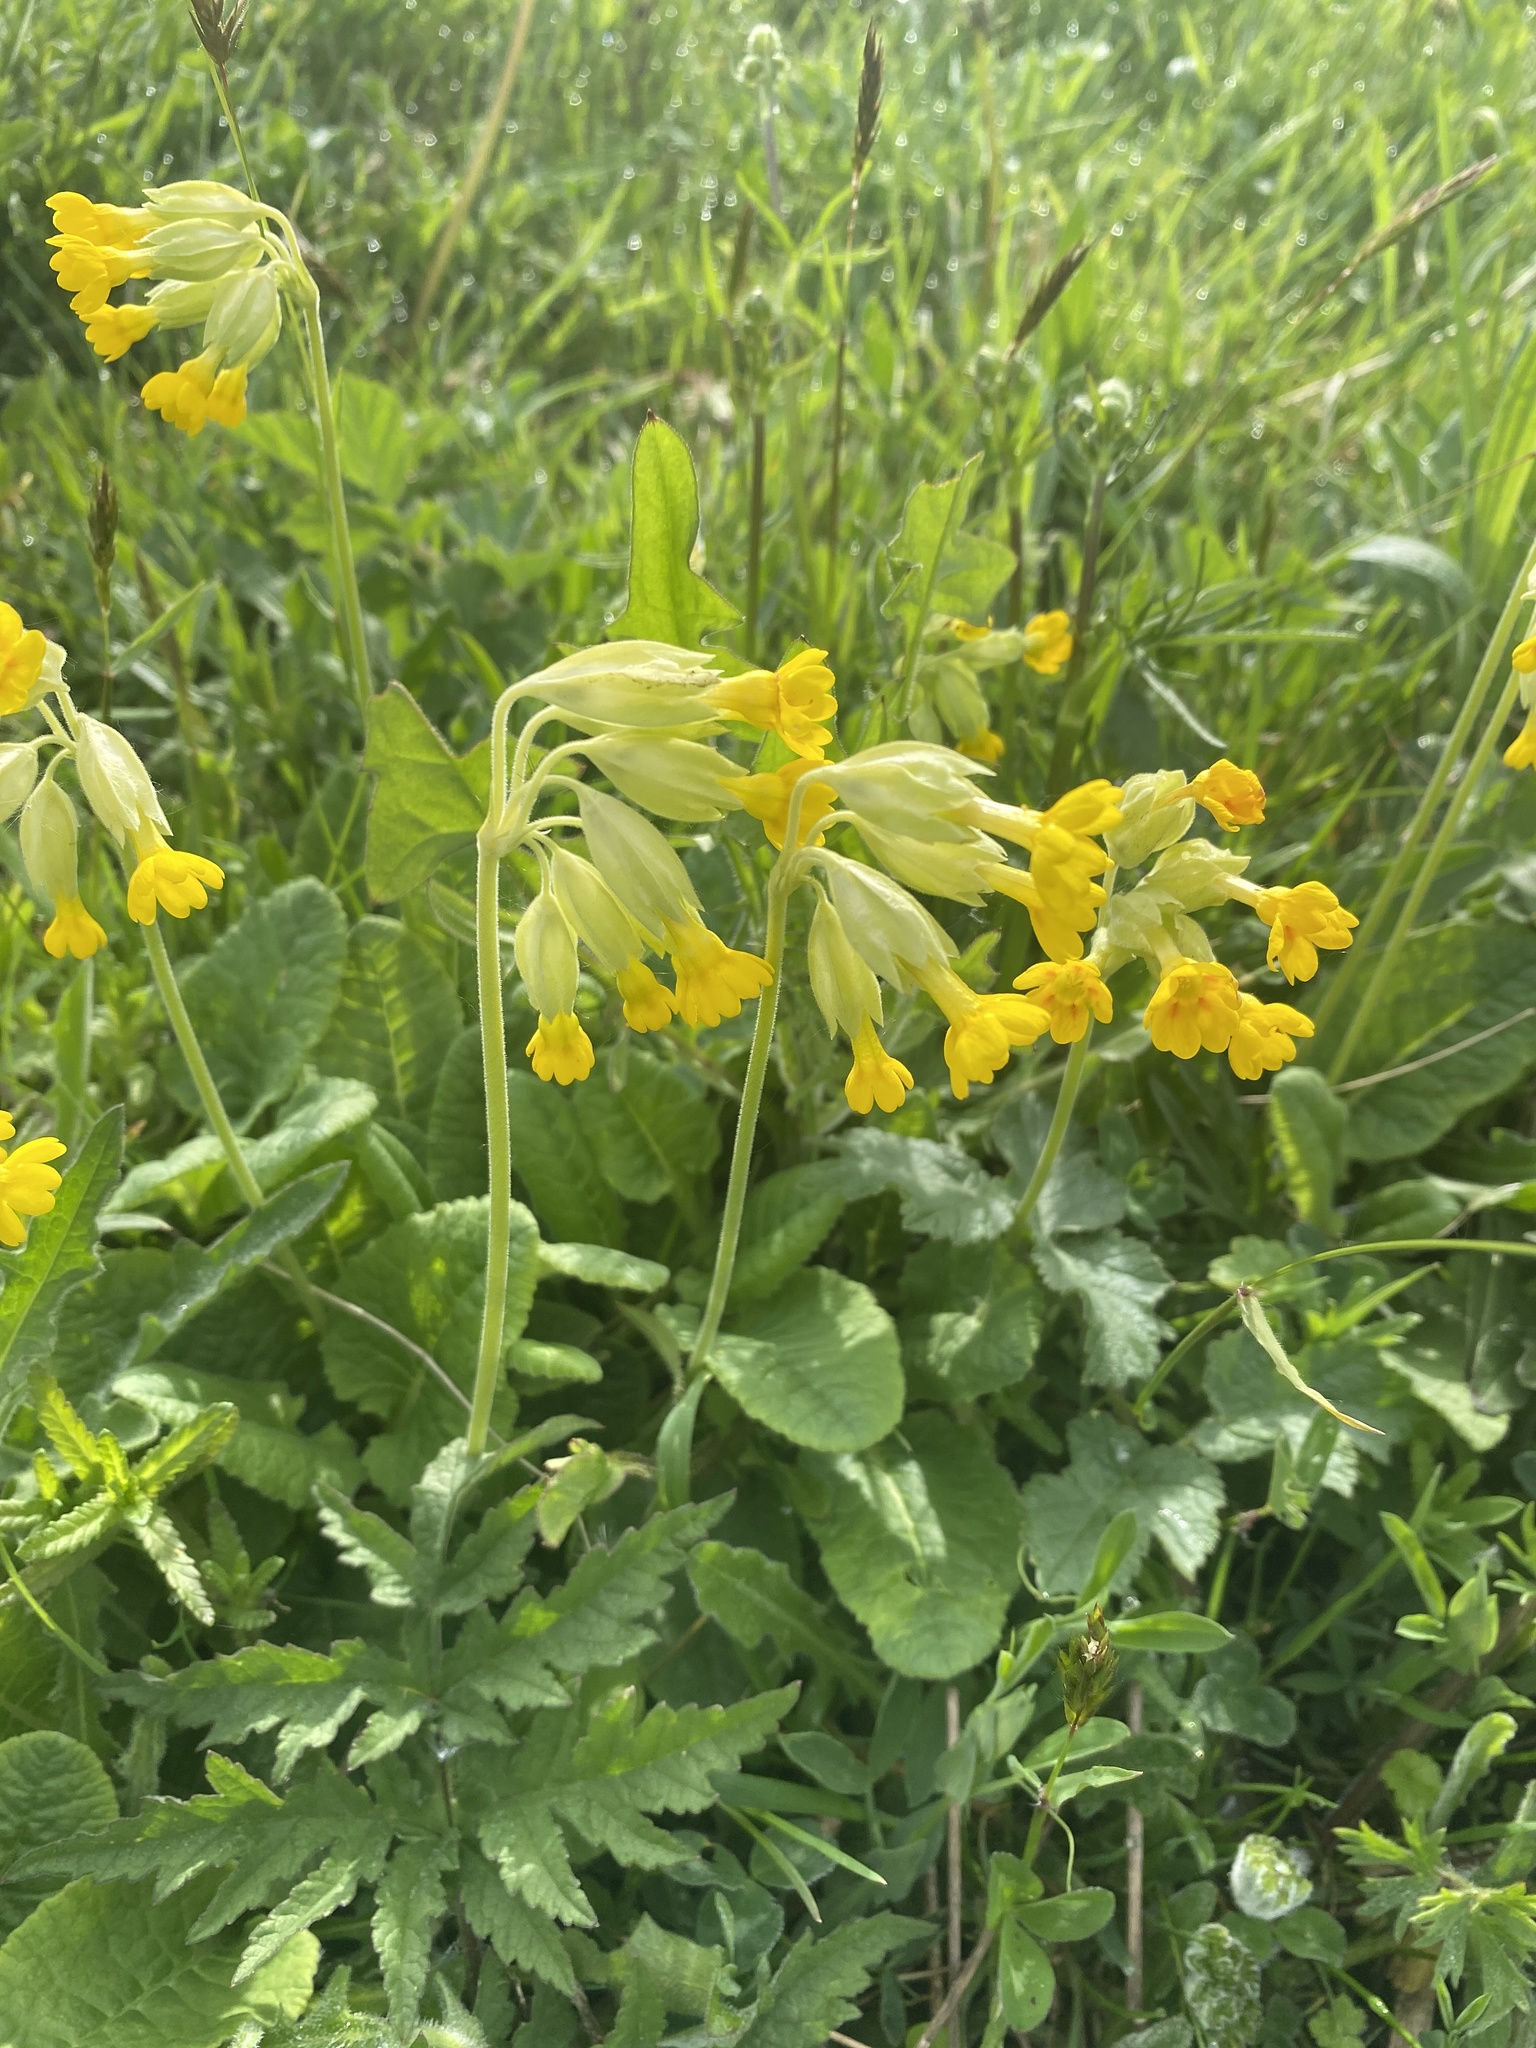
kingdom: Plantae
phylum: Tracheophyta
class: Magnoliopsida
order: Ericales
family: Primulaceae
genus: Primula
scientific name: Primula veris
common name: Cowslip
